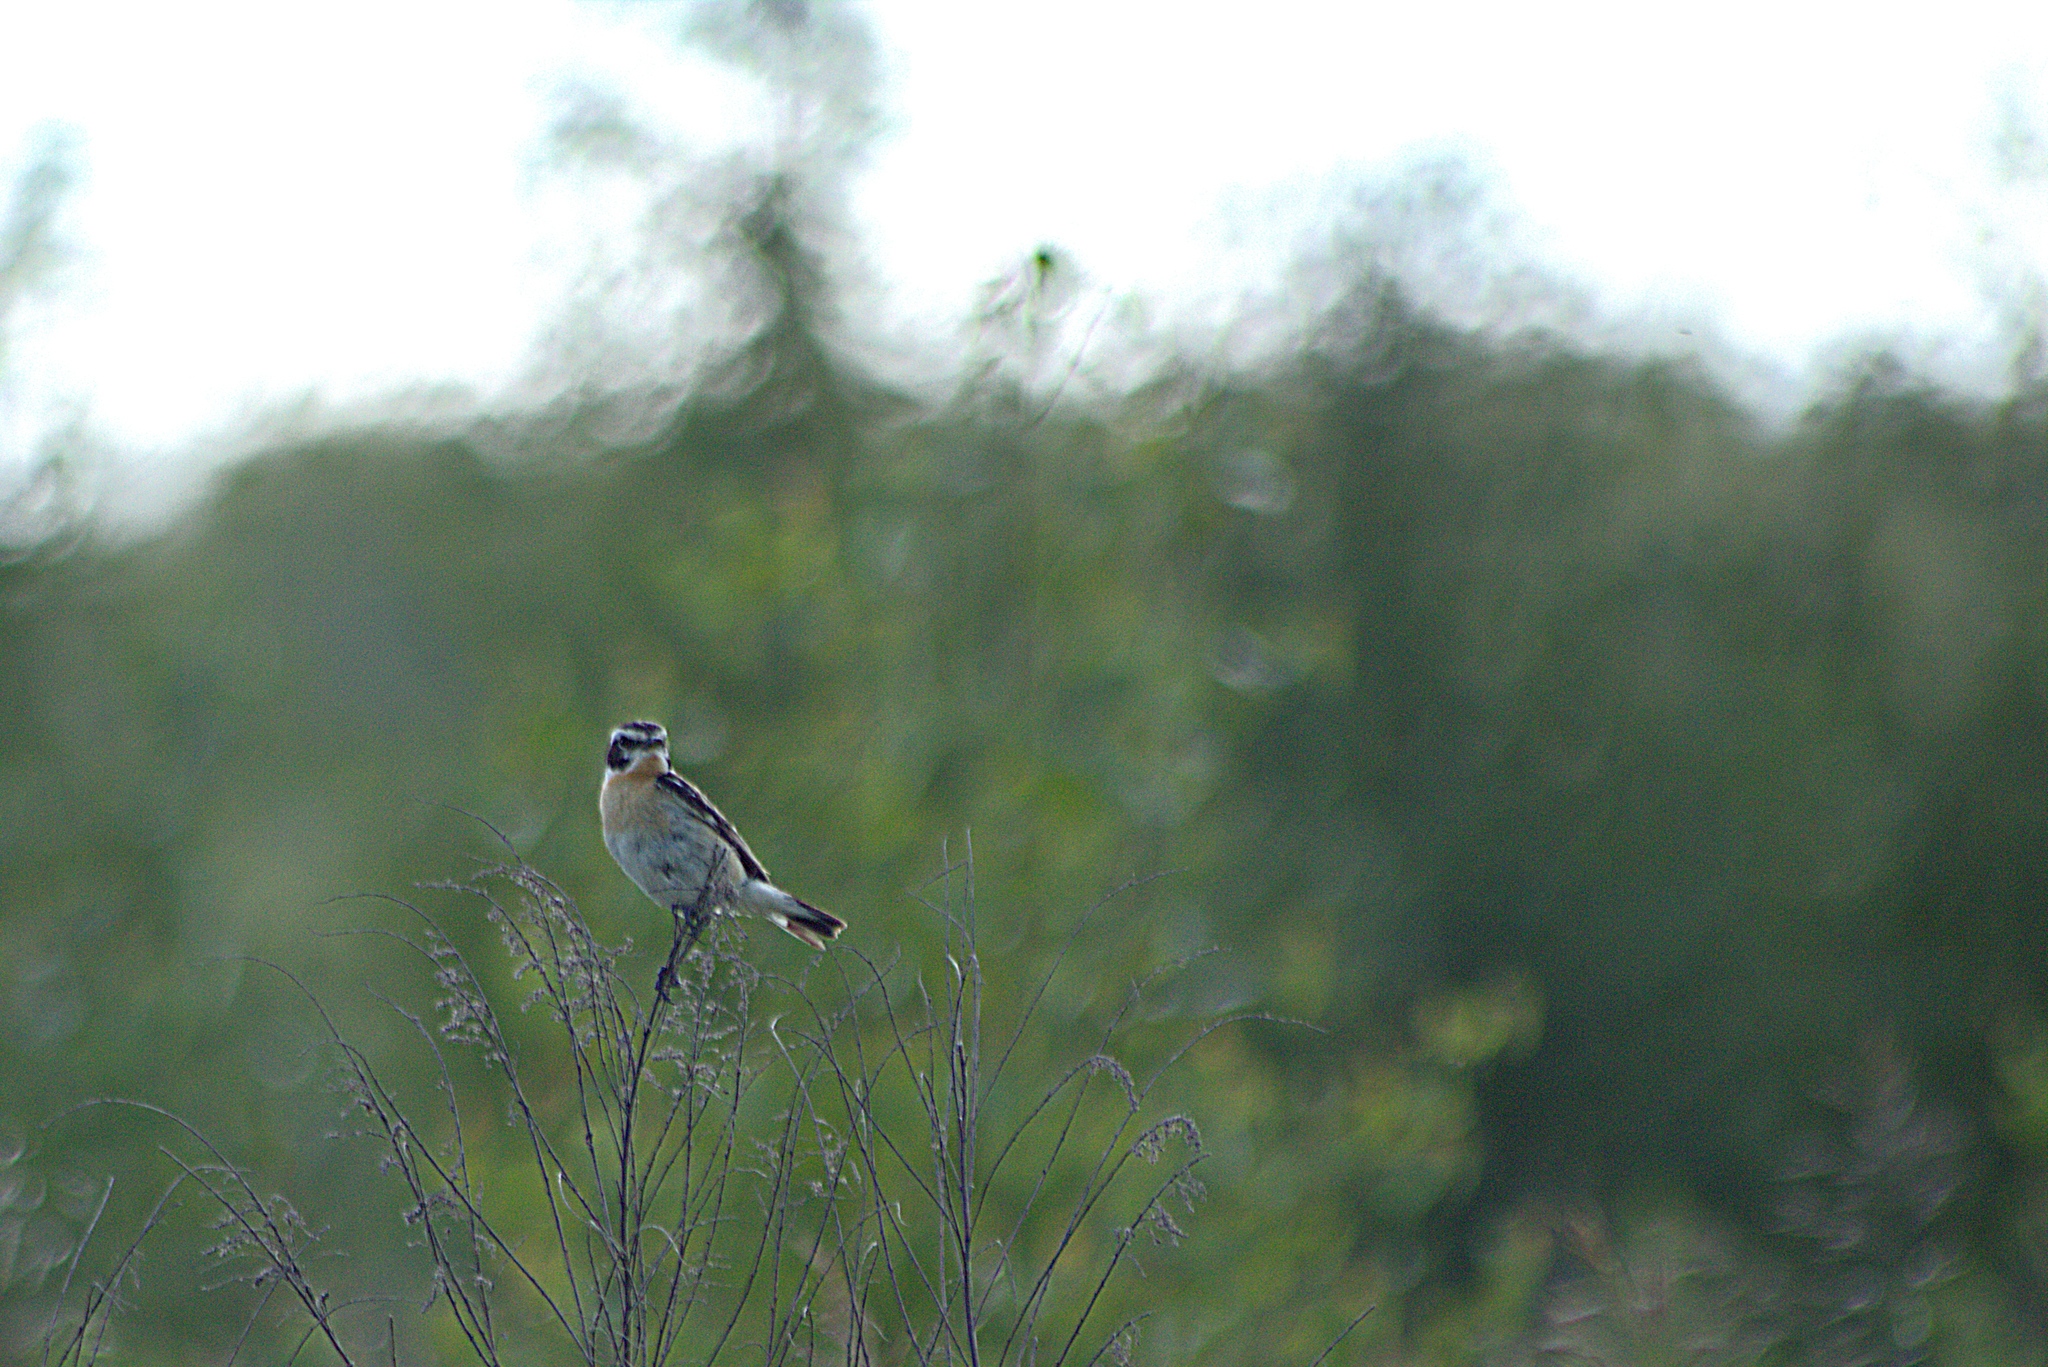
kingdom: Animalia
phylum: Chordata
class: Aves
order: Passeriformes
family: Muscicapidae
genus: Saxicola
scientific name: Saxicola rubetra
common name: Whinchat
